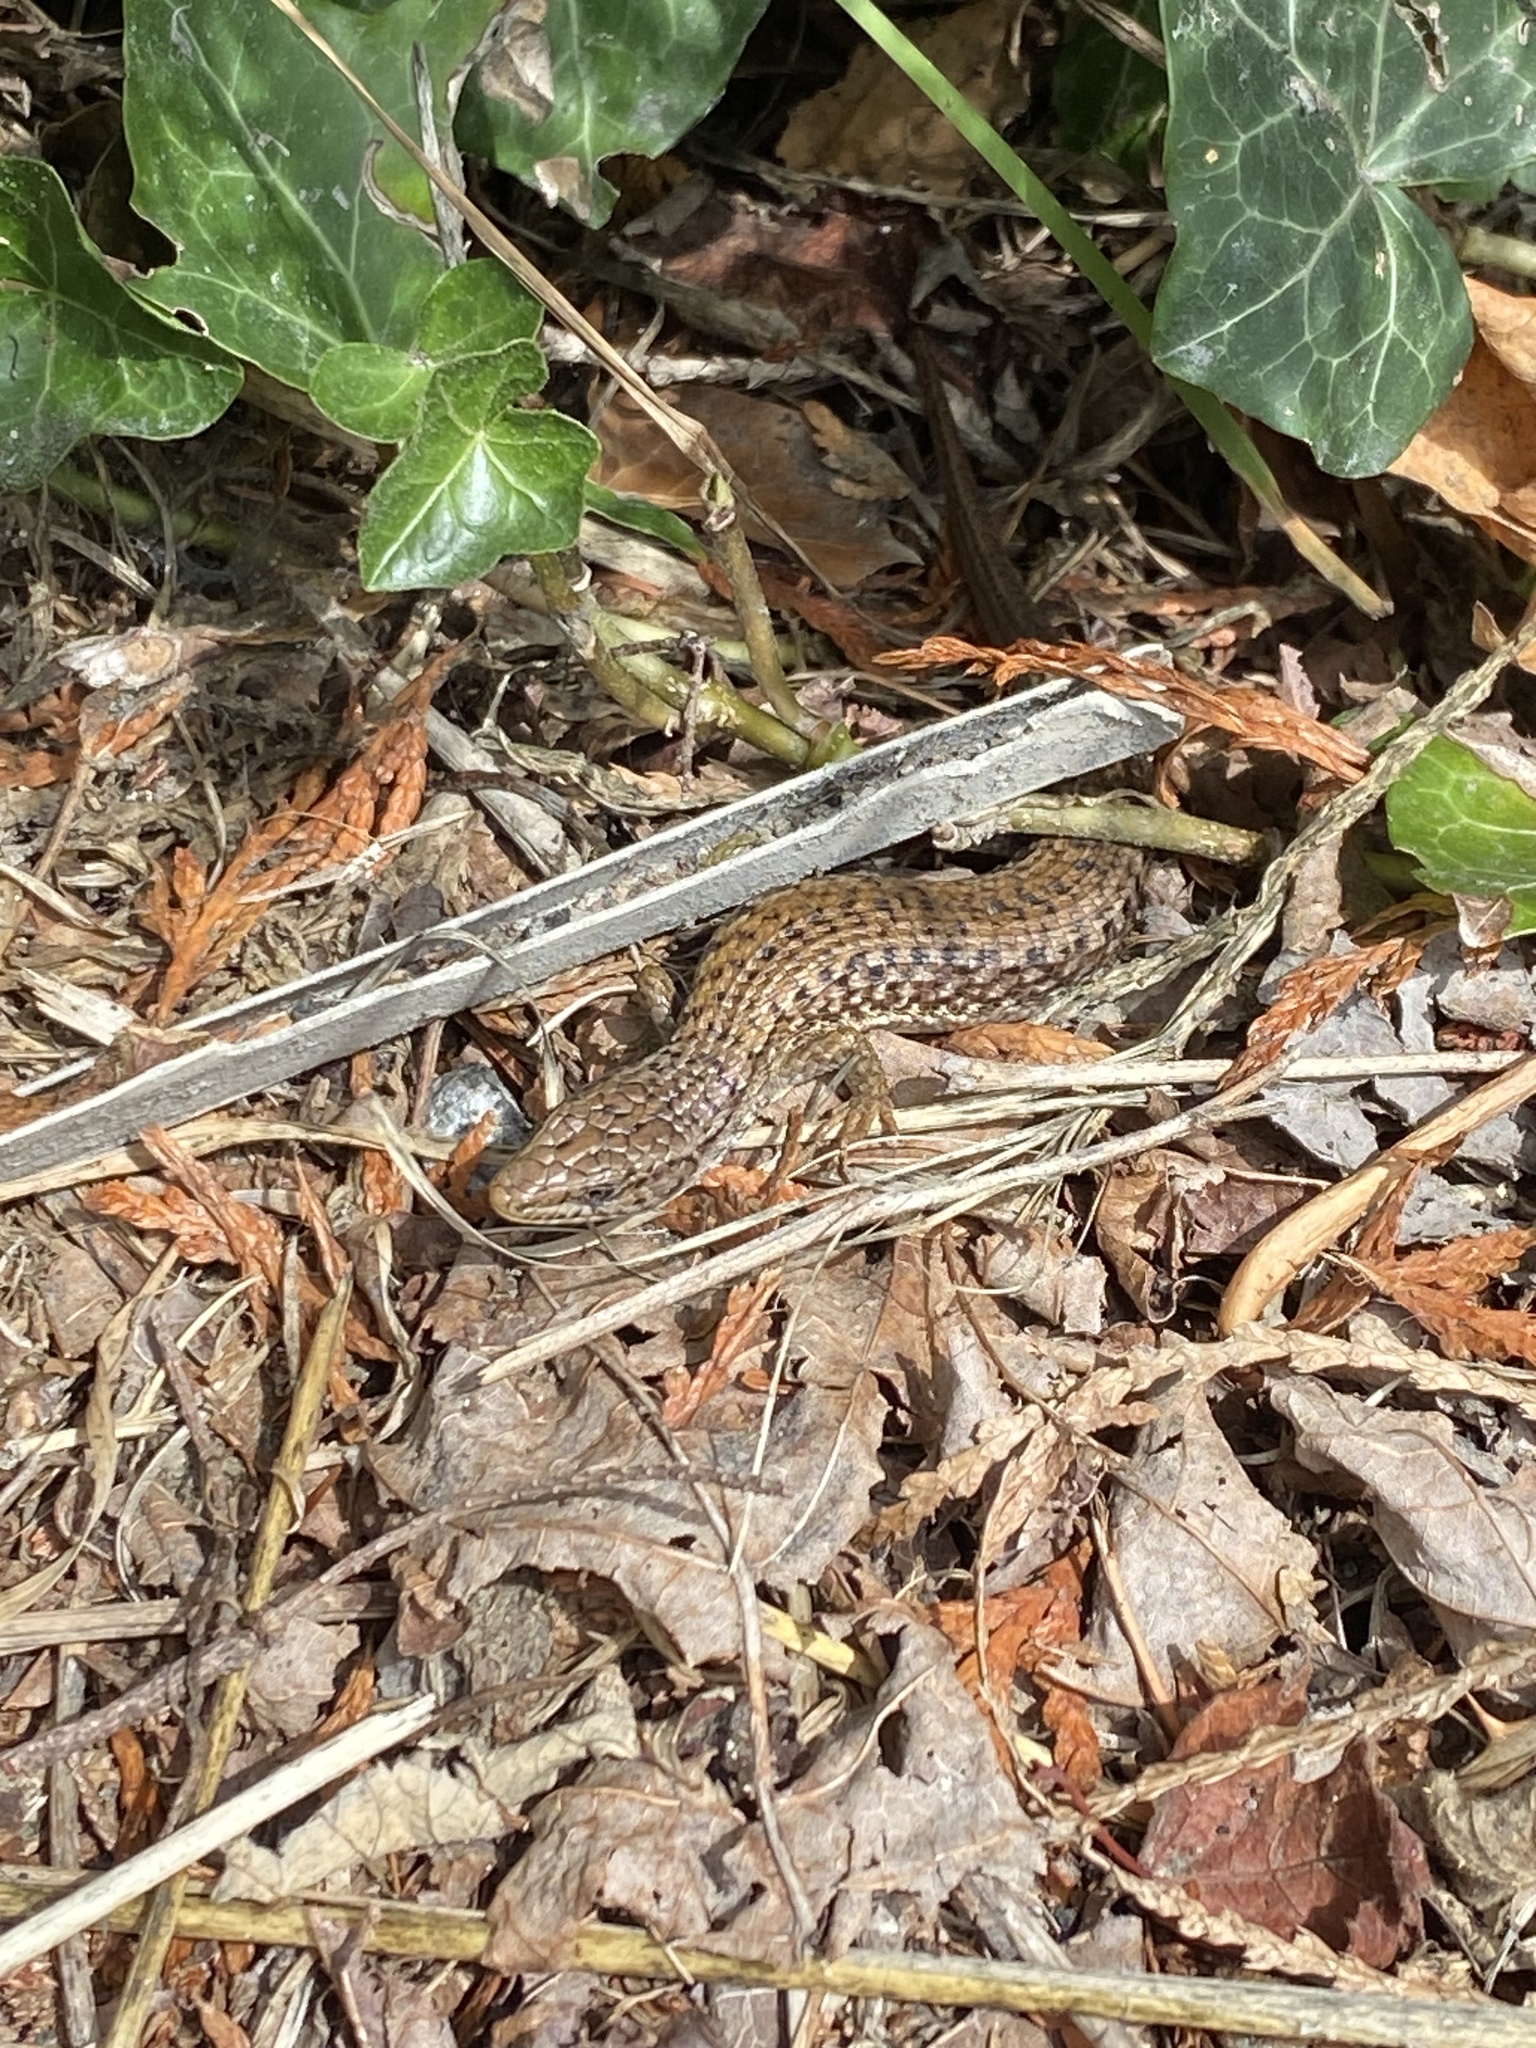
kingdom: Animalia
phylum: Chordata
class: Squamata
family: Anguidae
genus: Elgaria
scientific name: Elgaria coerulea
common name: Northern alligator lizard
